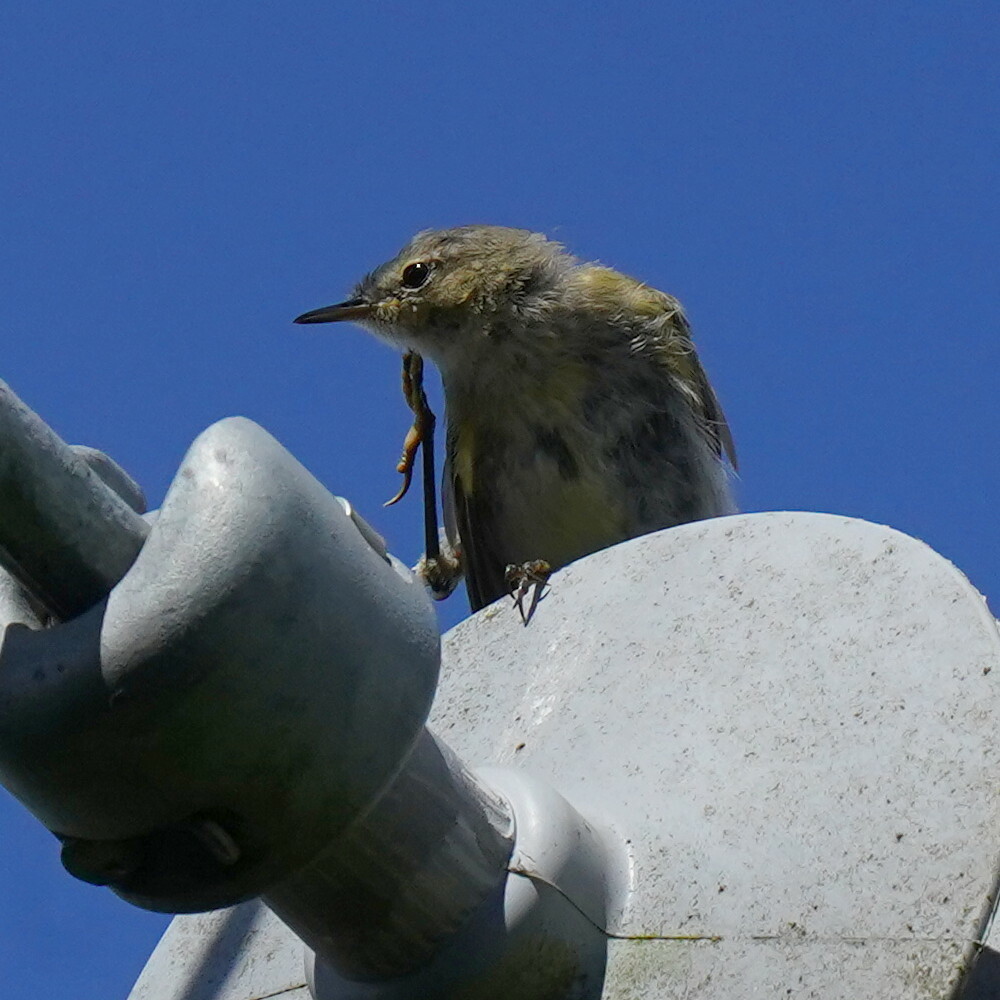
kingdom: Animalia
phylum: Chordata
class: Aves
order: Passeriformes
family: Phylloscopidae
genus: Phylloscopus
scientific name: Phylloscopus collybita
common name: Common chiffchaff
